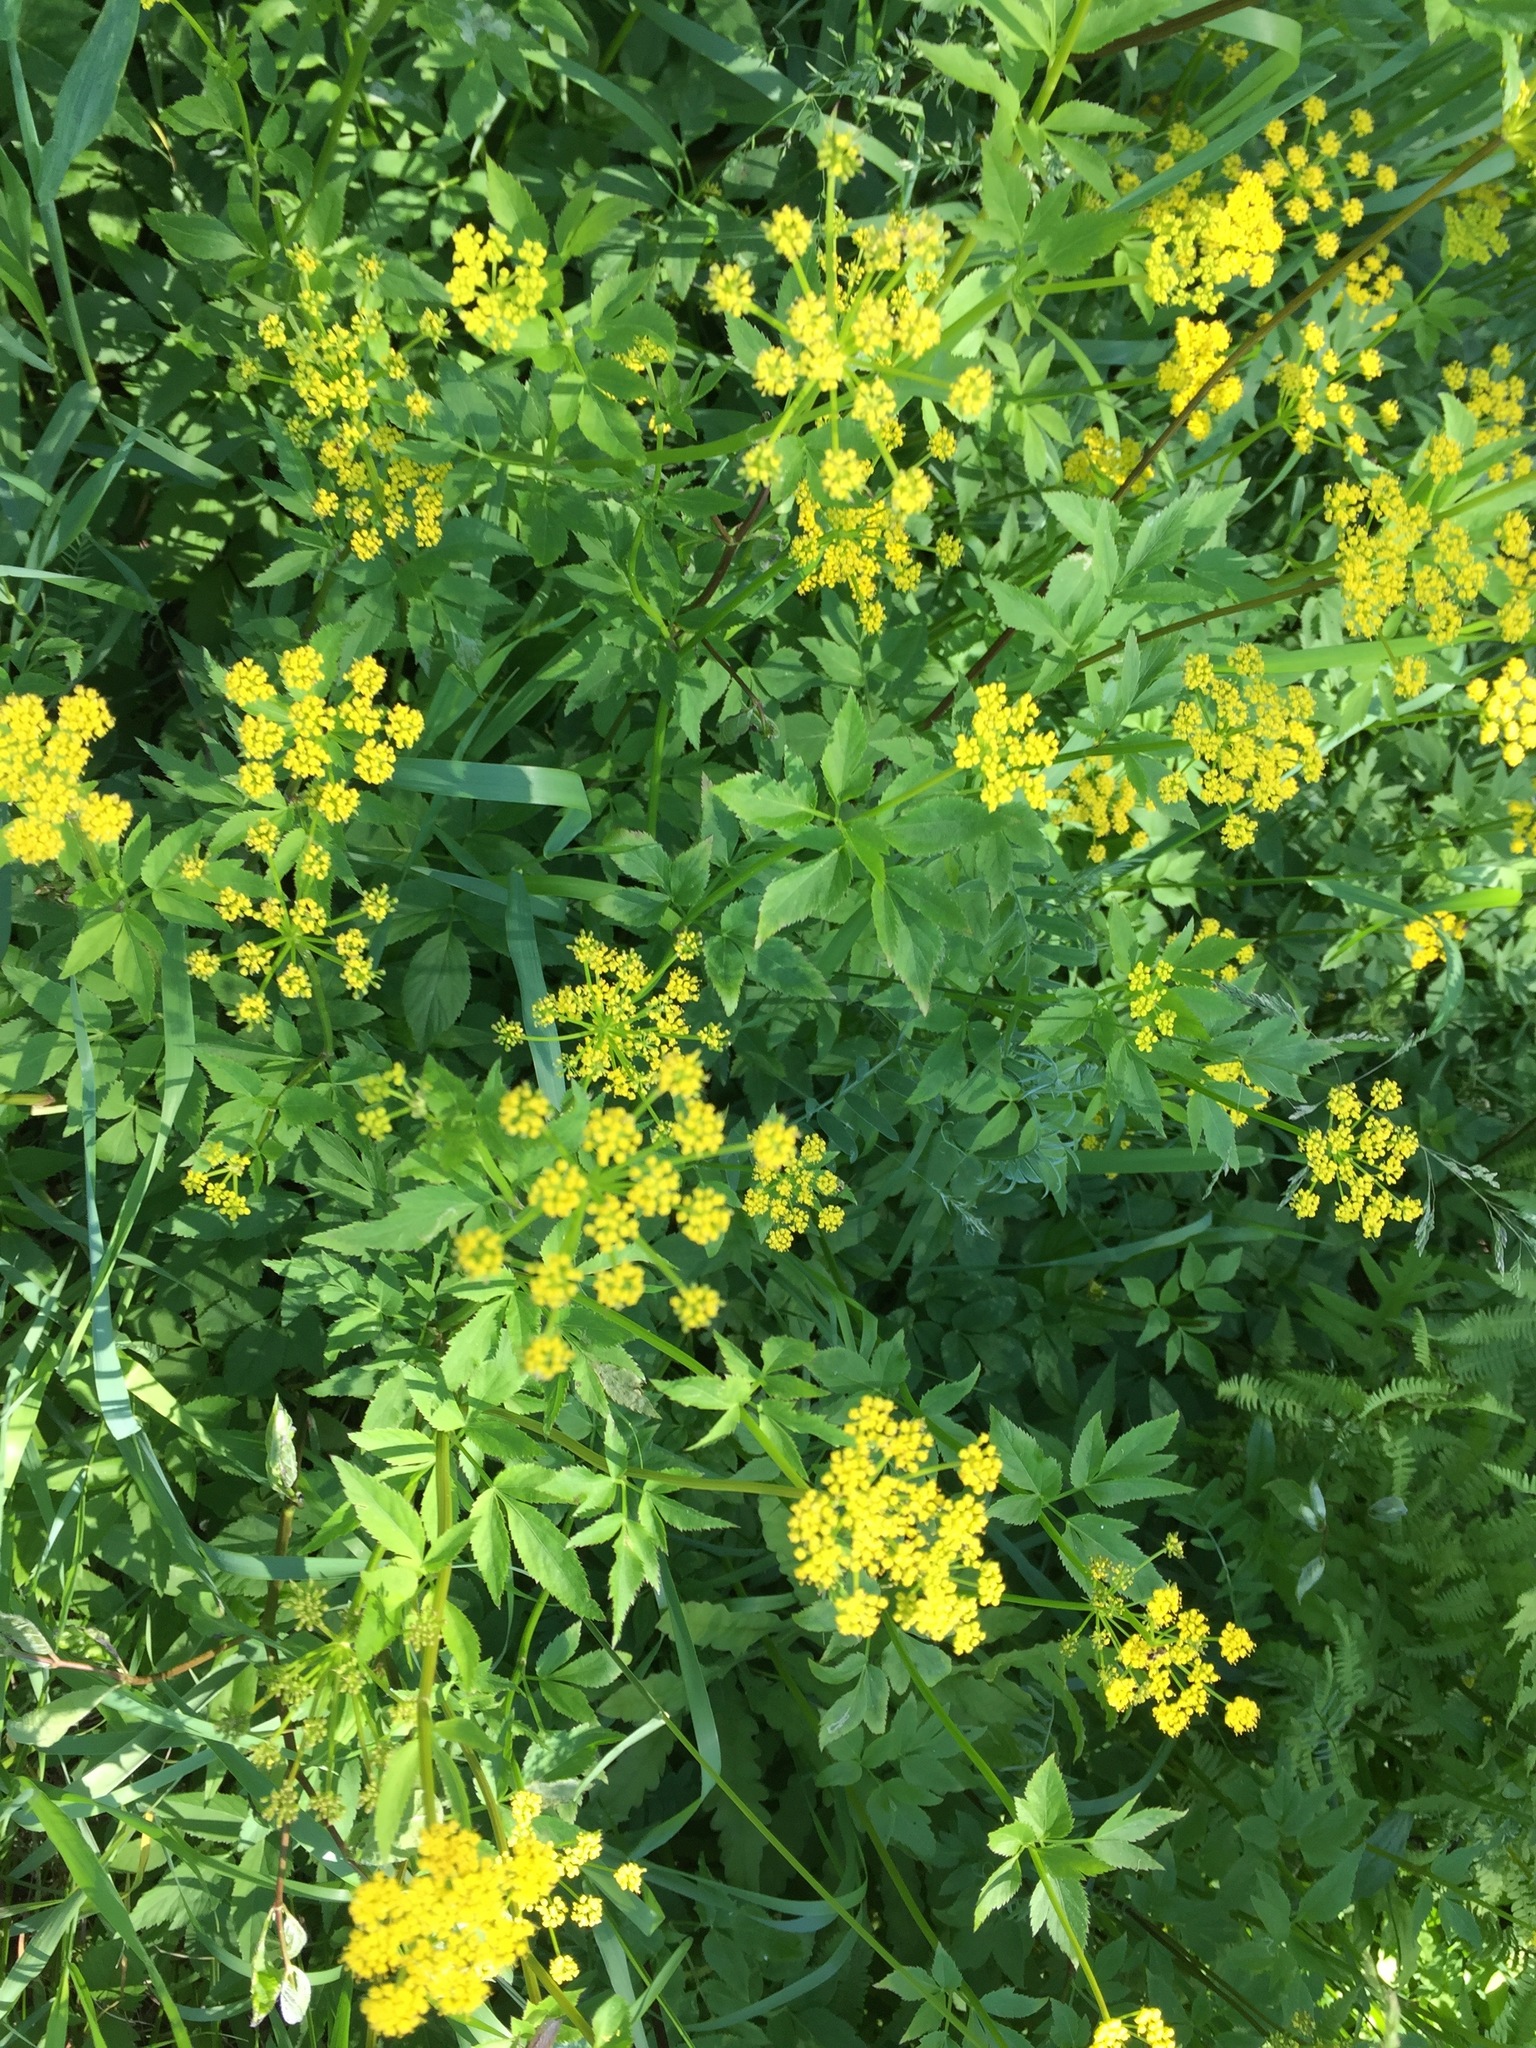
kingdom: Plantae
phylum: Tracheophyta
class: Magnoliopsida
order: Apiales
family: Apiaceae
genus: Zizia
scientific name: Zizia aurea
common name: Golden alexanders
